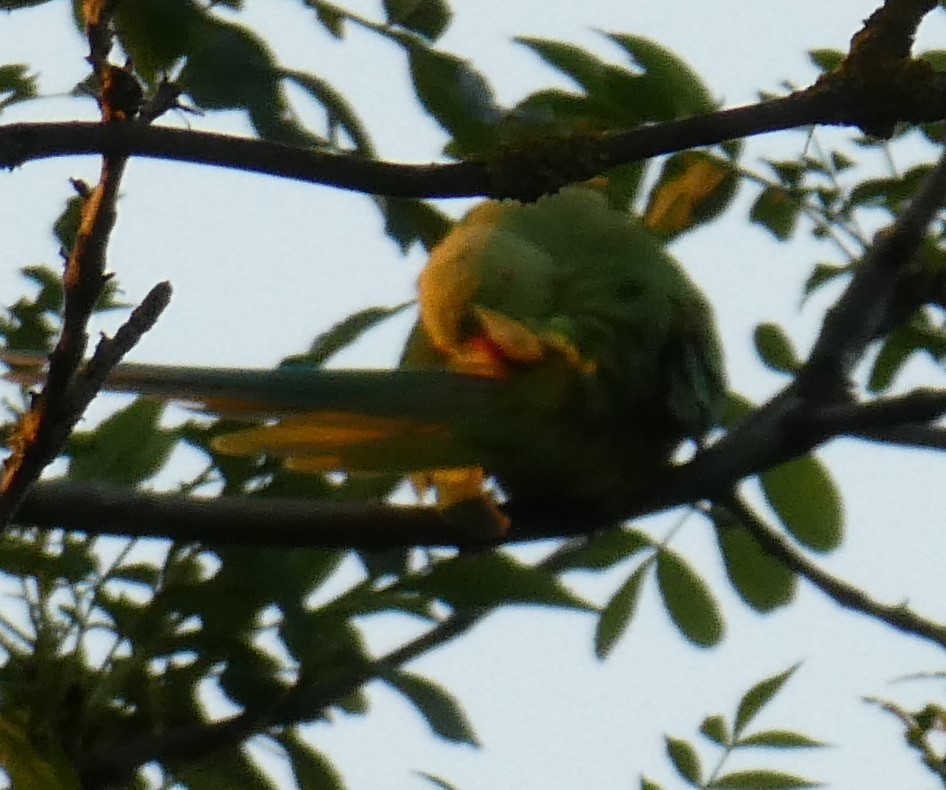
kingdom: Animalia
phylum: Chordata
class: Aves
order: Psittaciformes
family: Psittacidae
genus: Psittacula
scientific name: Psittacula krameri
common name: Rose-ringed parakeet
